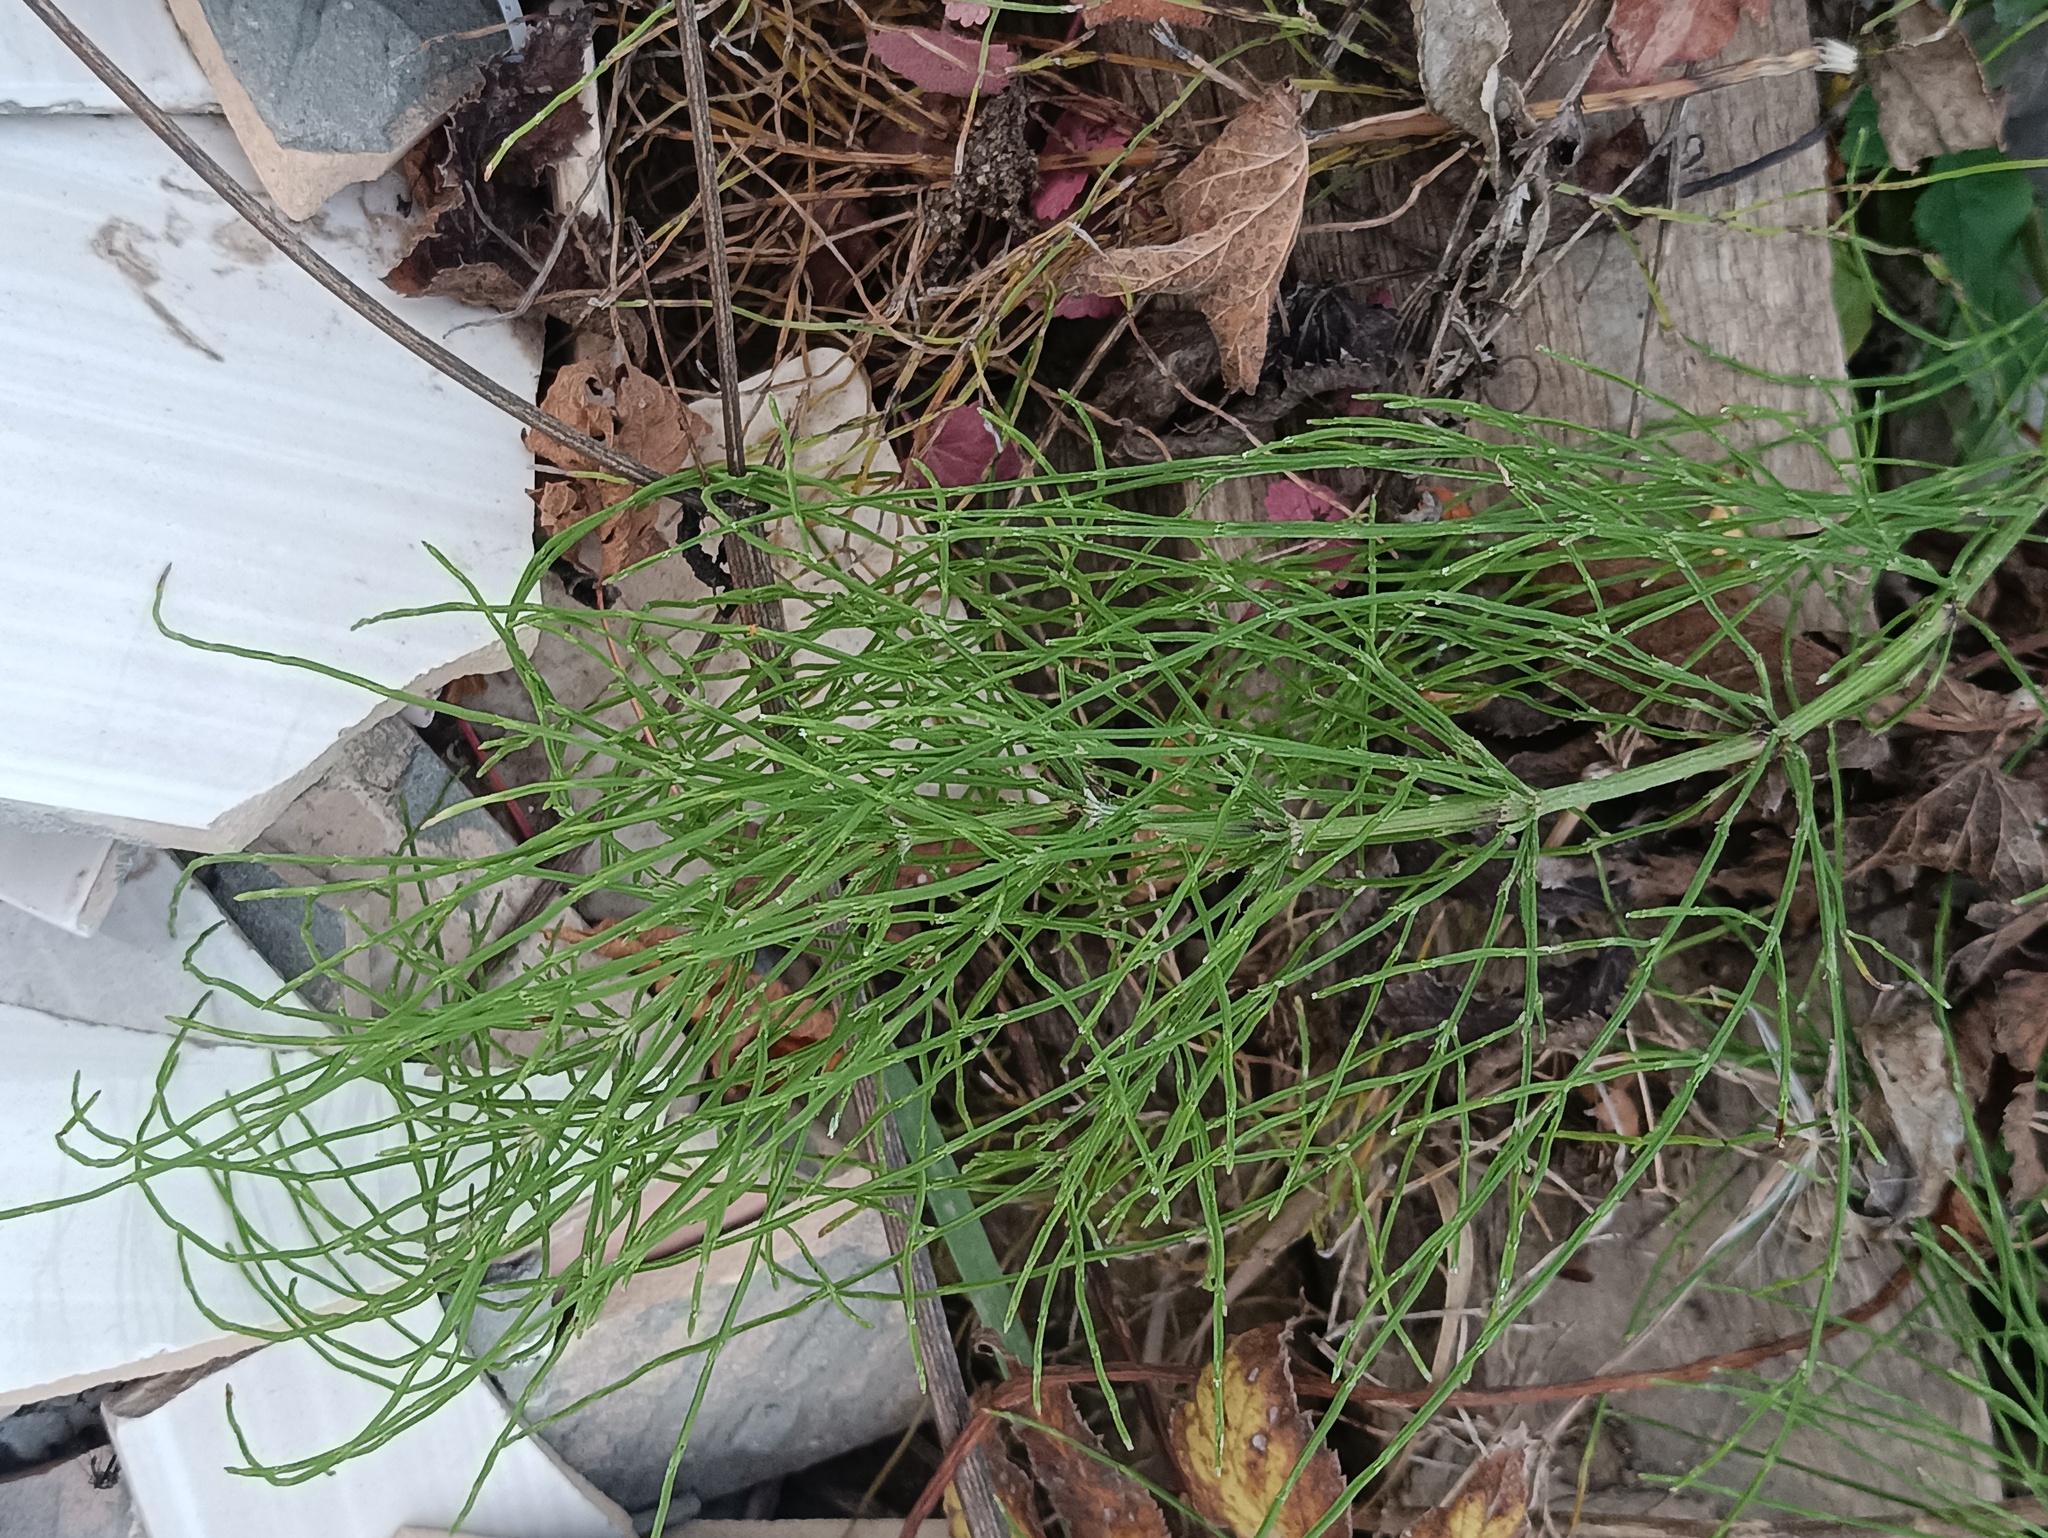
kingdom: Plantae
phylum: Tracheophyta
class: Polypodiopsida
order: Equisetales
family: Equisetaceae
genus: Equisetum
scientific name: Equisetum arvense
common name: Field horsetail
